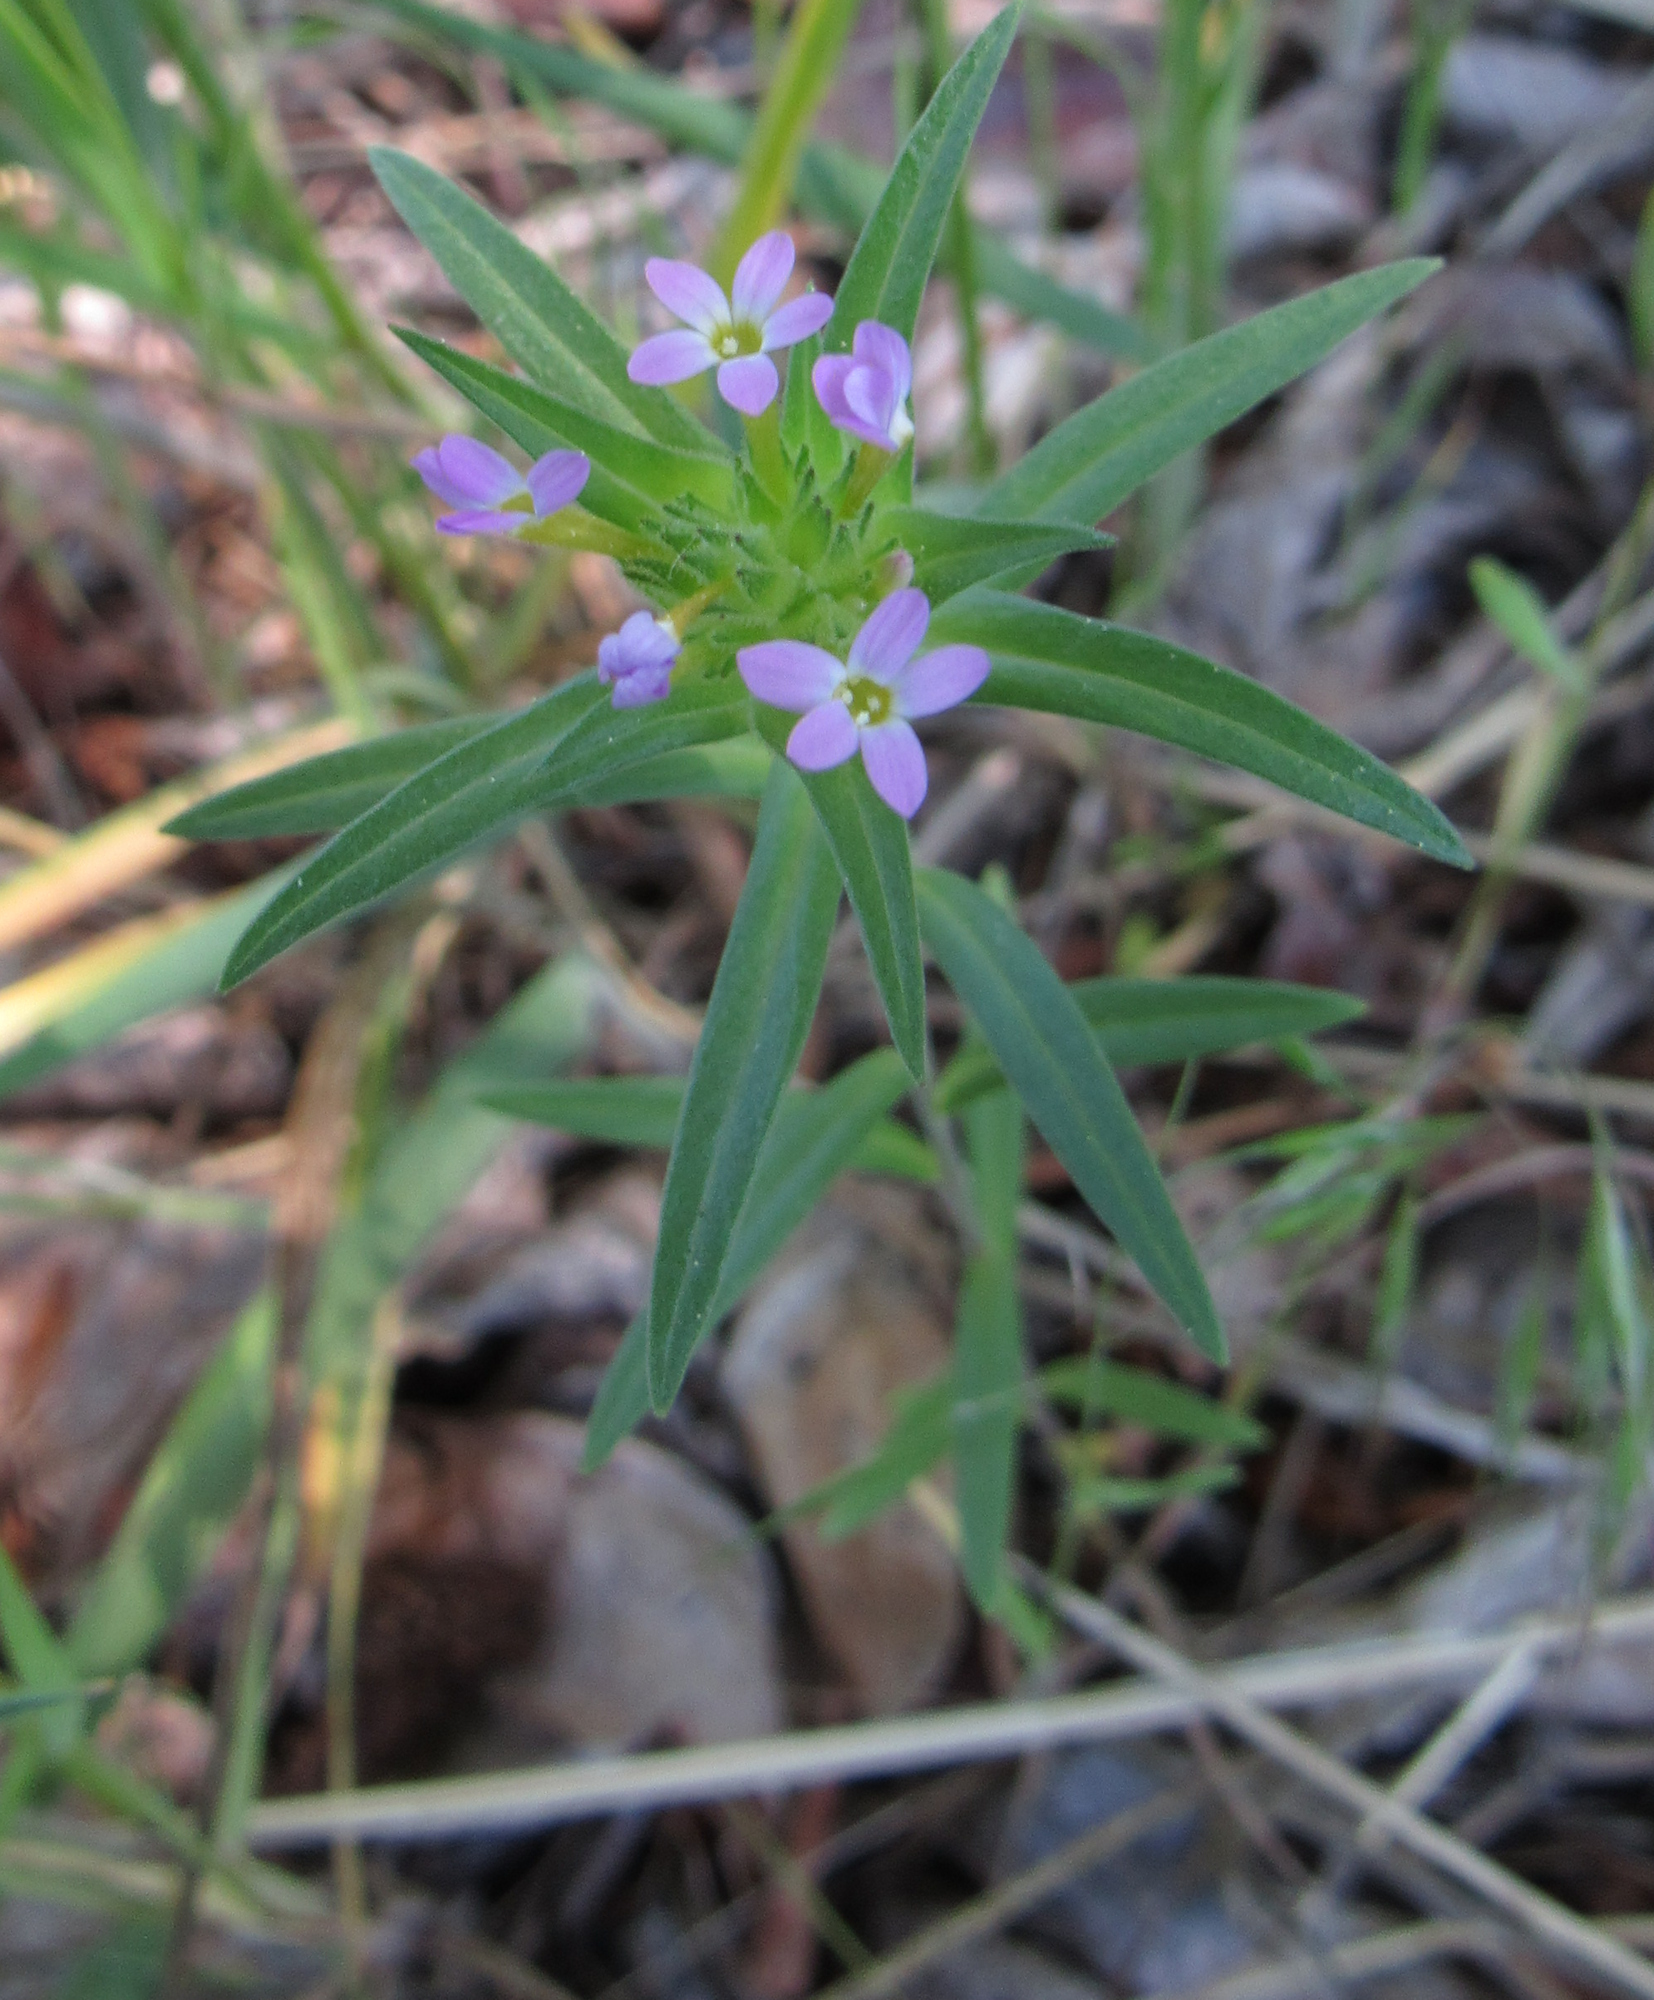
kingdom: Plantae
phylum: Tracheophyta
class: Magnoliopsida
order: Ericales
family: Polemoniaceae
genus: Collomia
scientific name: Collomia linearis
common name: Tiny trumpet
